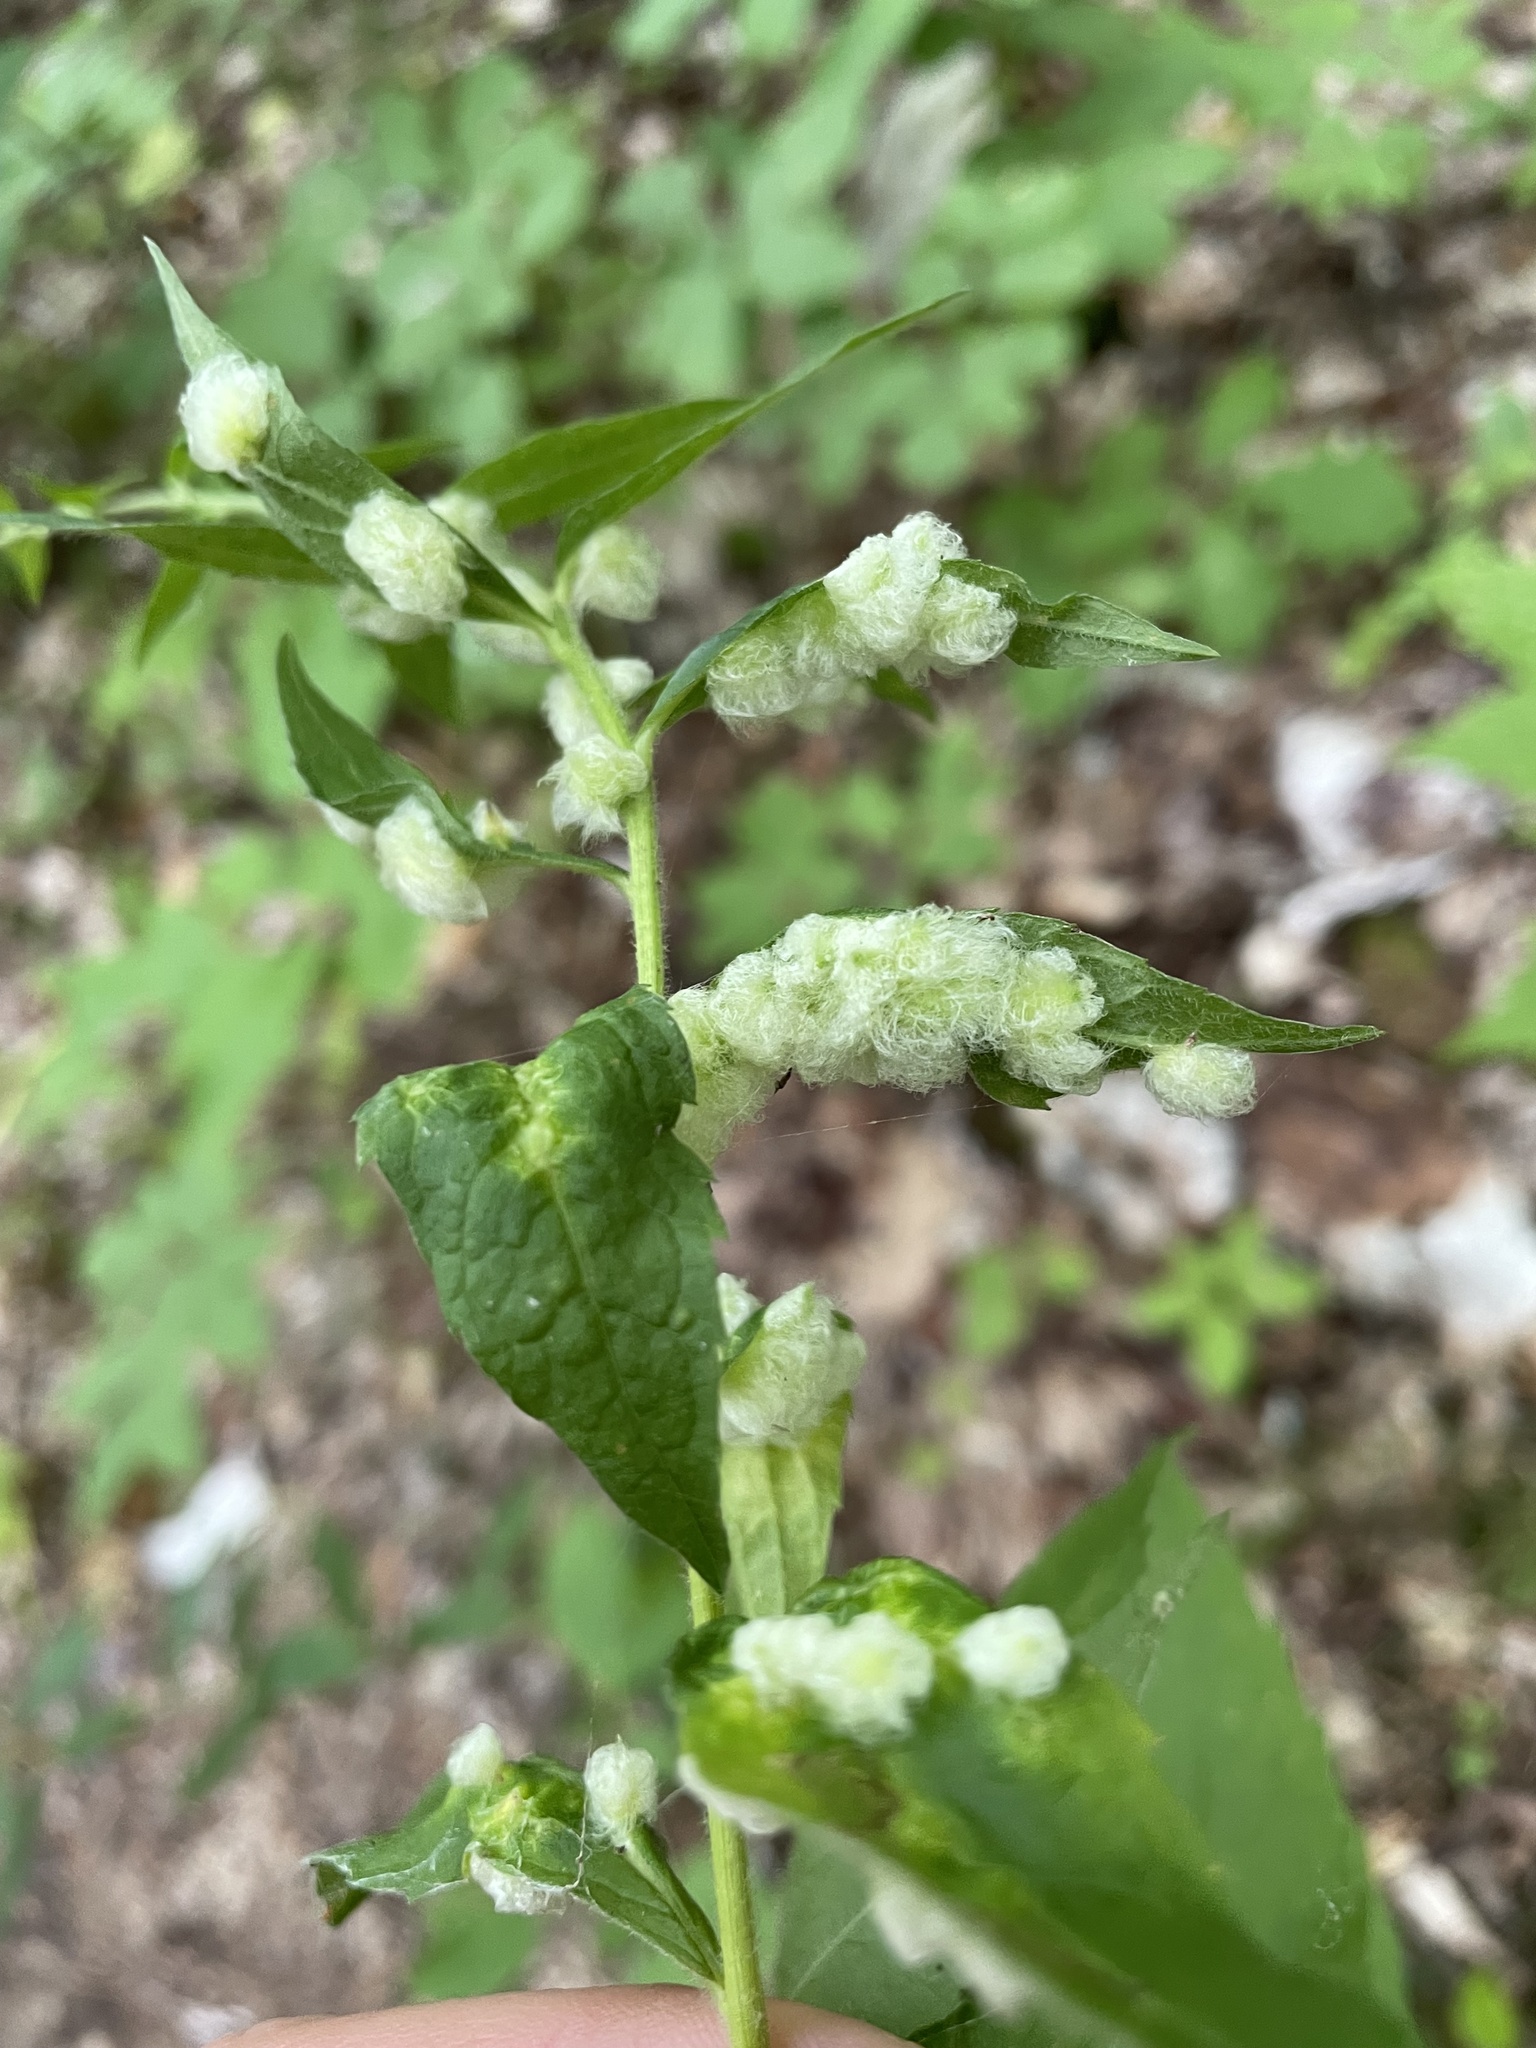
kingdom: Animalia
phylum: Arthropoda
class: Insecta
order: Diptera
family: Cecidomyiidae
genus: Rhopalomyia
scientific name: Rhopalomyia clarkei
